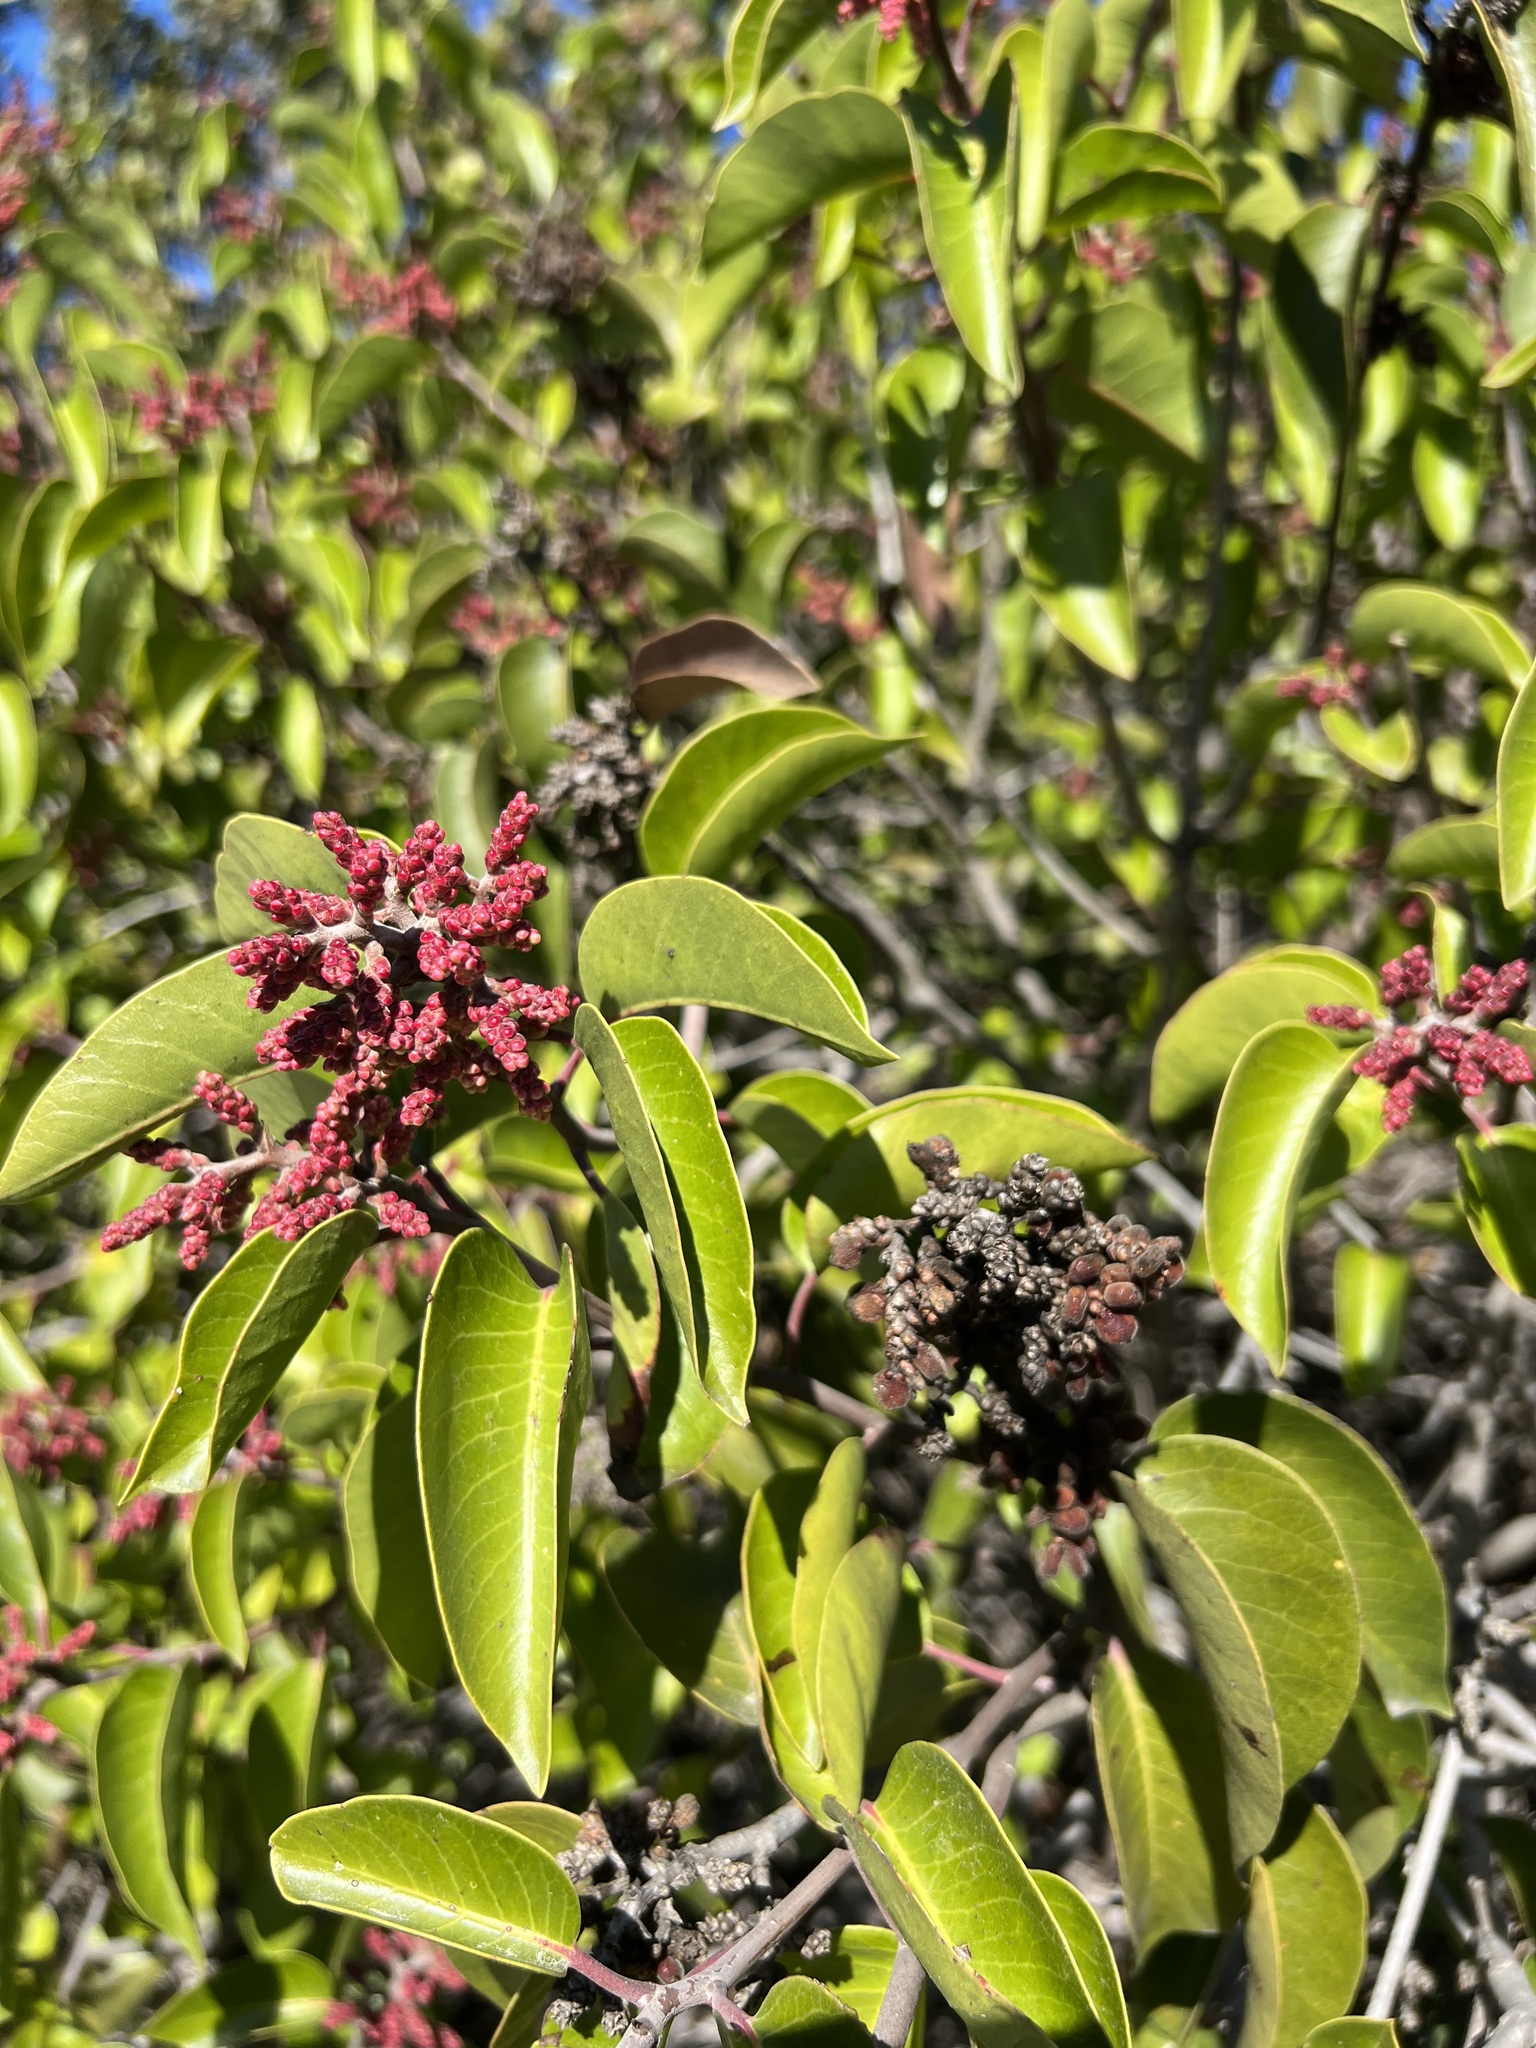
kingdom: Plantae
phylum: Tracheophyta
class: Magnoliopsida
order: Sapindales
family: Anacardiaceae
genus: Rhus
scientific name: Rhus ovata
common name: Sugar sumac
